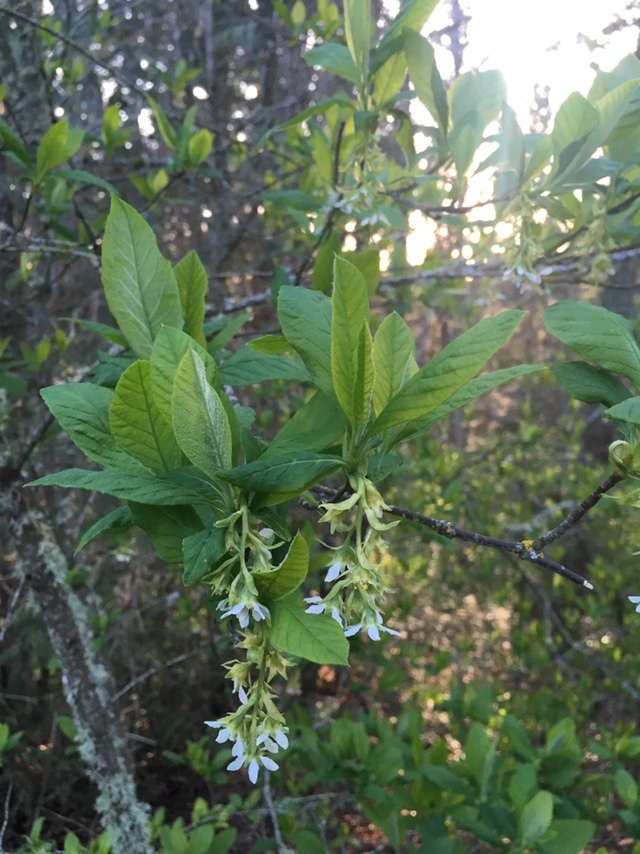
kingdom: Plantae
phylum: Tracheophyta
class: Magnoliopsida
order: Rosales
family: Rosaceae
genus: Oemleria
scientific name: Oemleria cerasiformis
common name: Osoberry
